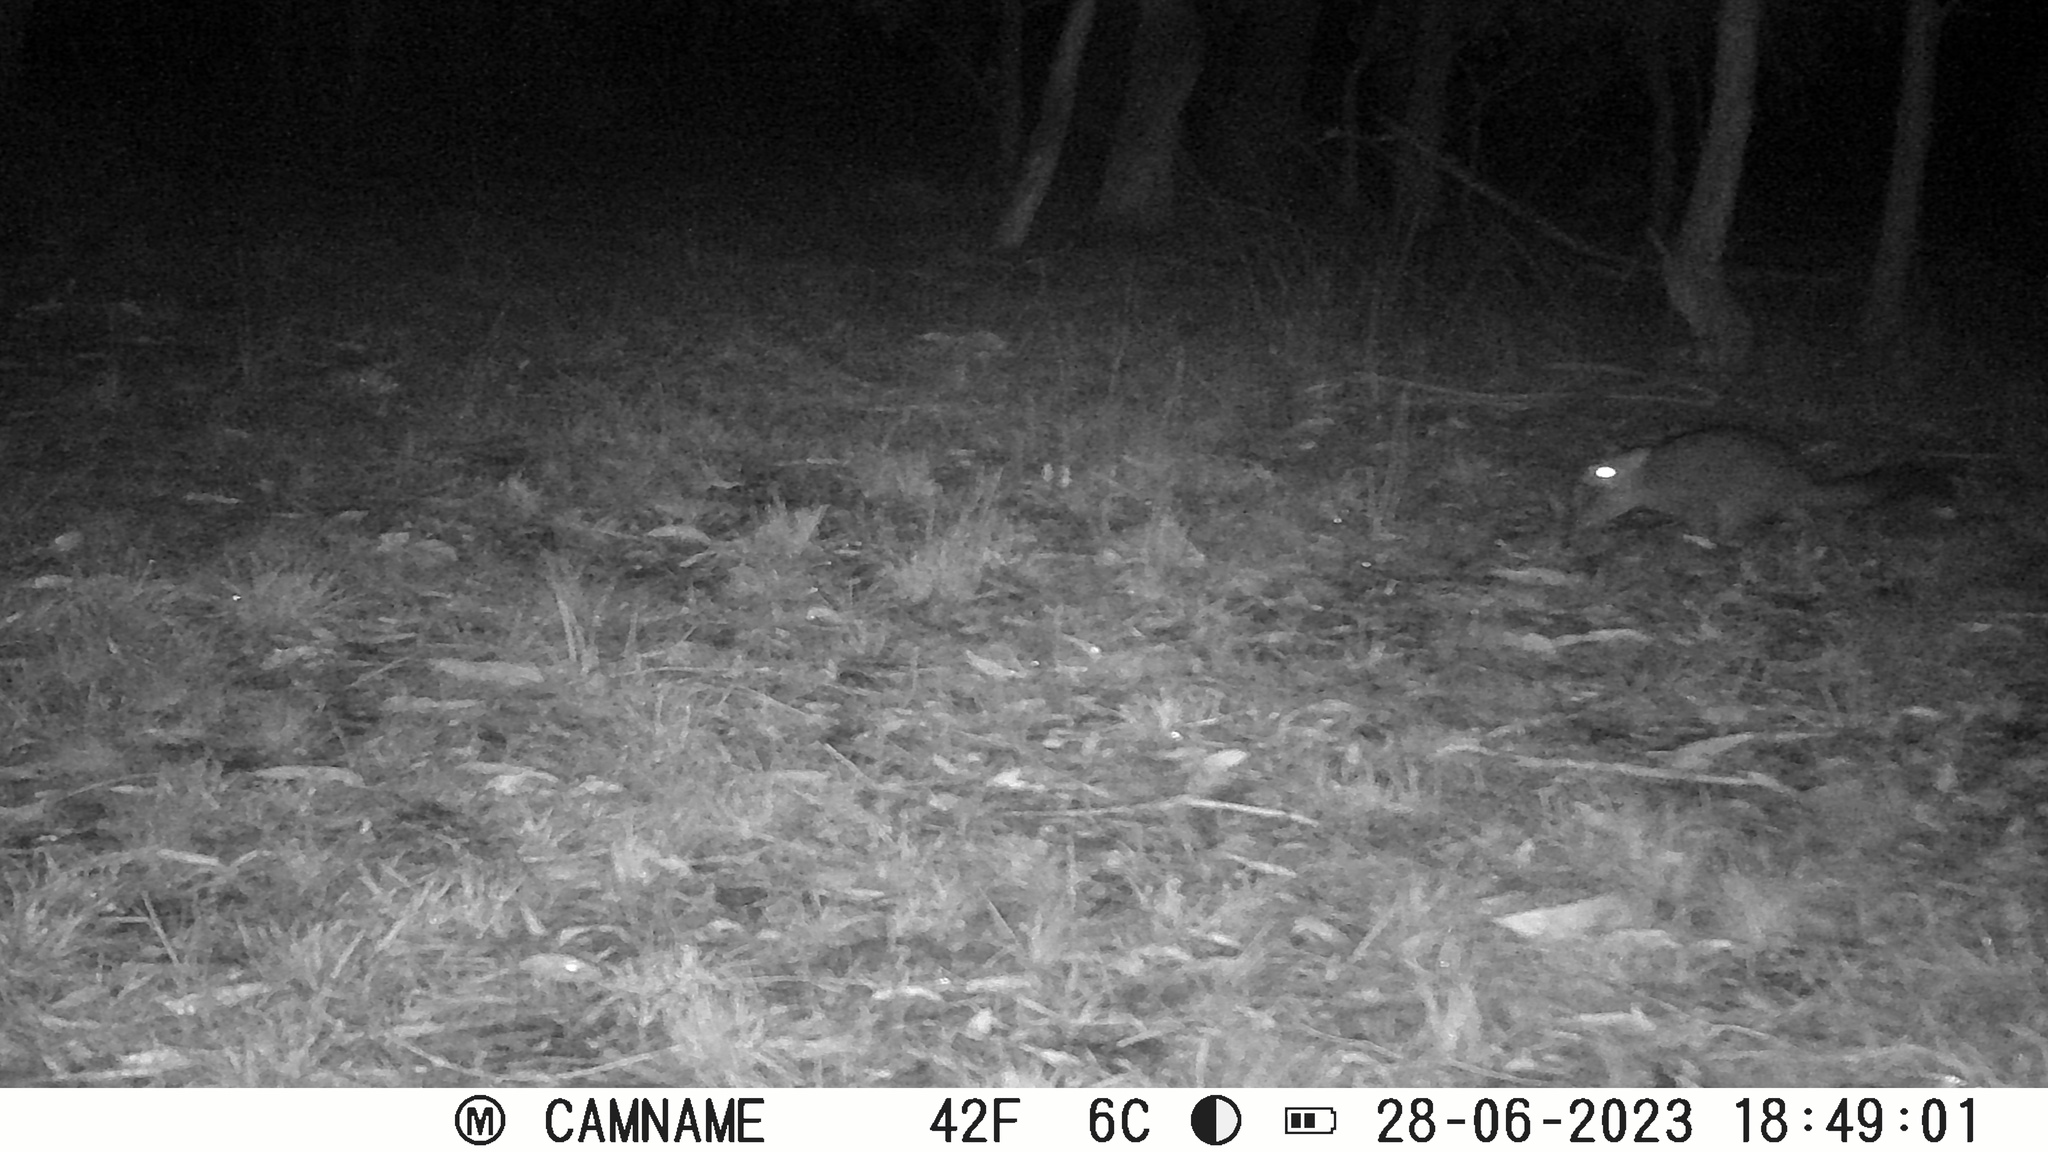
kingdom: Animalia
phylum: Chordata
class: Mammalia
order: Diprotodontia
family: Phalangeridae
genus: Trichosurus
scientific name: Trichosurus vulpecula
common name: Common brushtail
